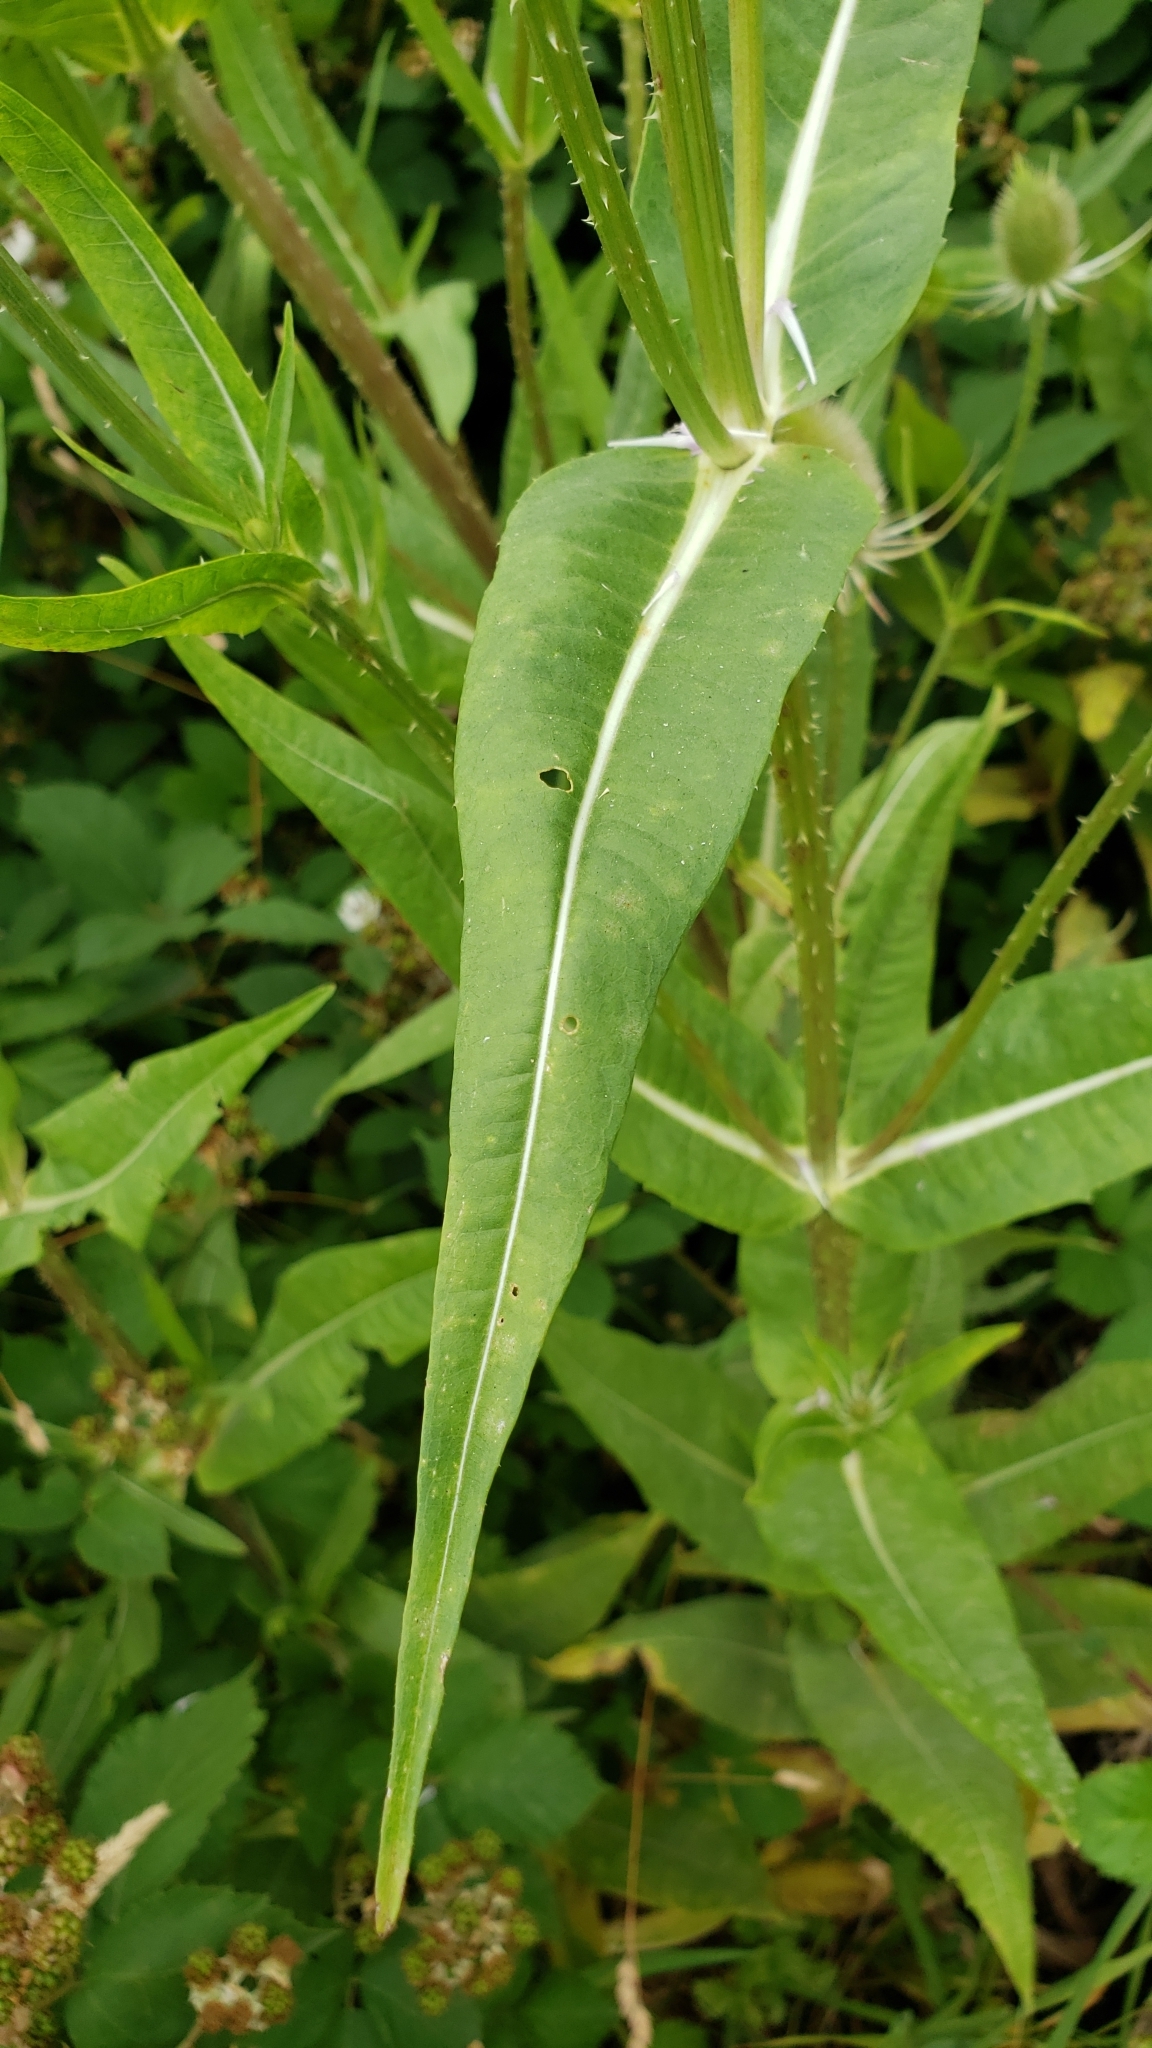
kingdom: Plantae
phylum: Tracheophyta
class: Magnoliopsida
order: Dipsacales
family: Caprifoliaceae
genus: Dipsacus
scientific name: Dipsacus fullonum
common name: Teasel
